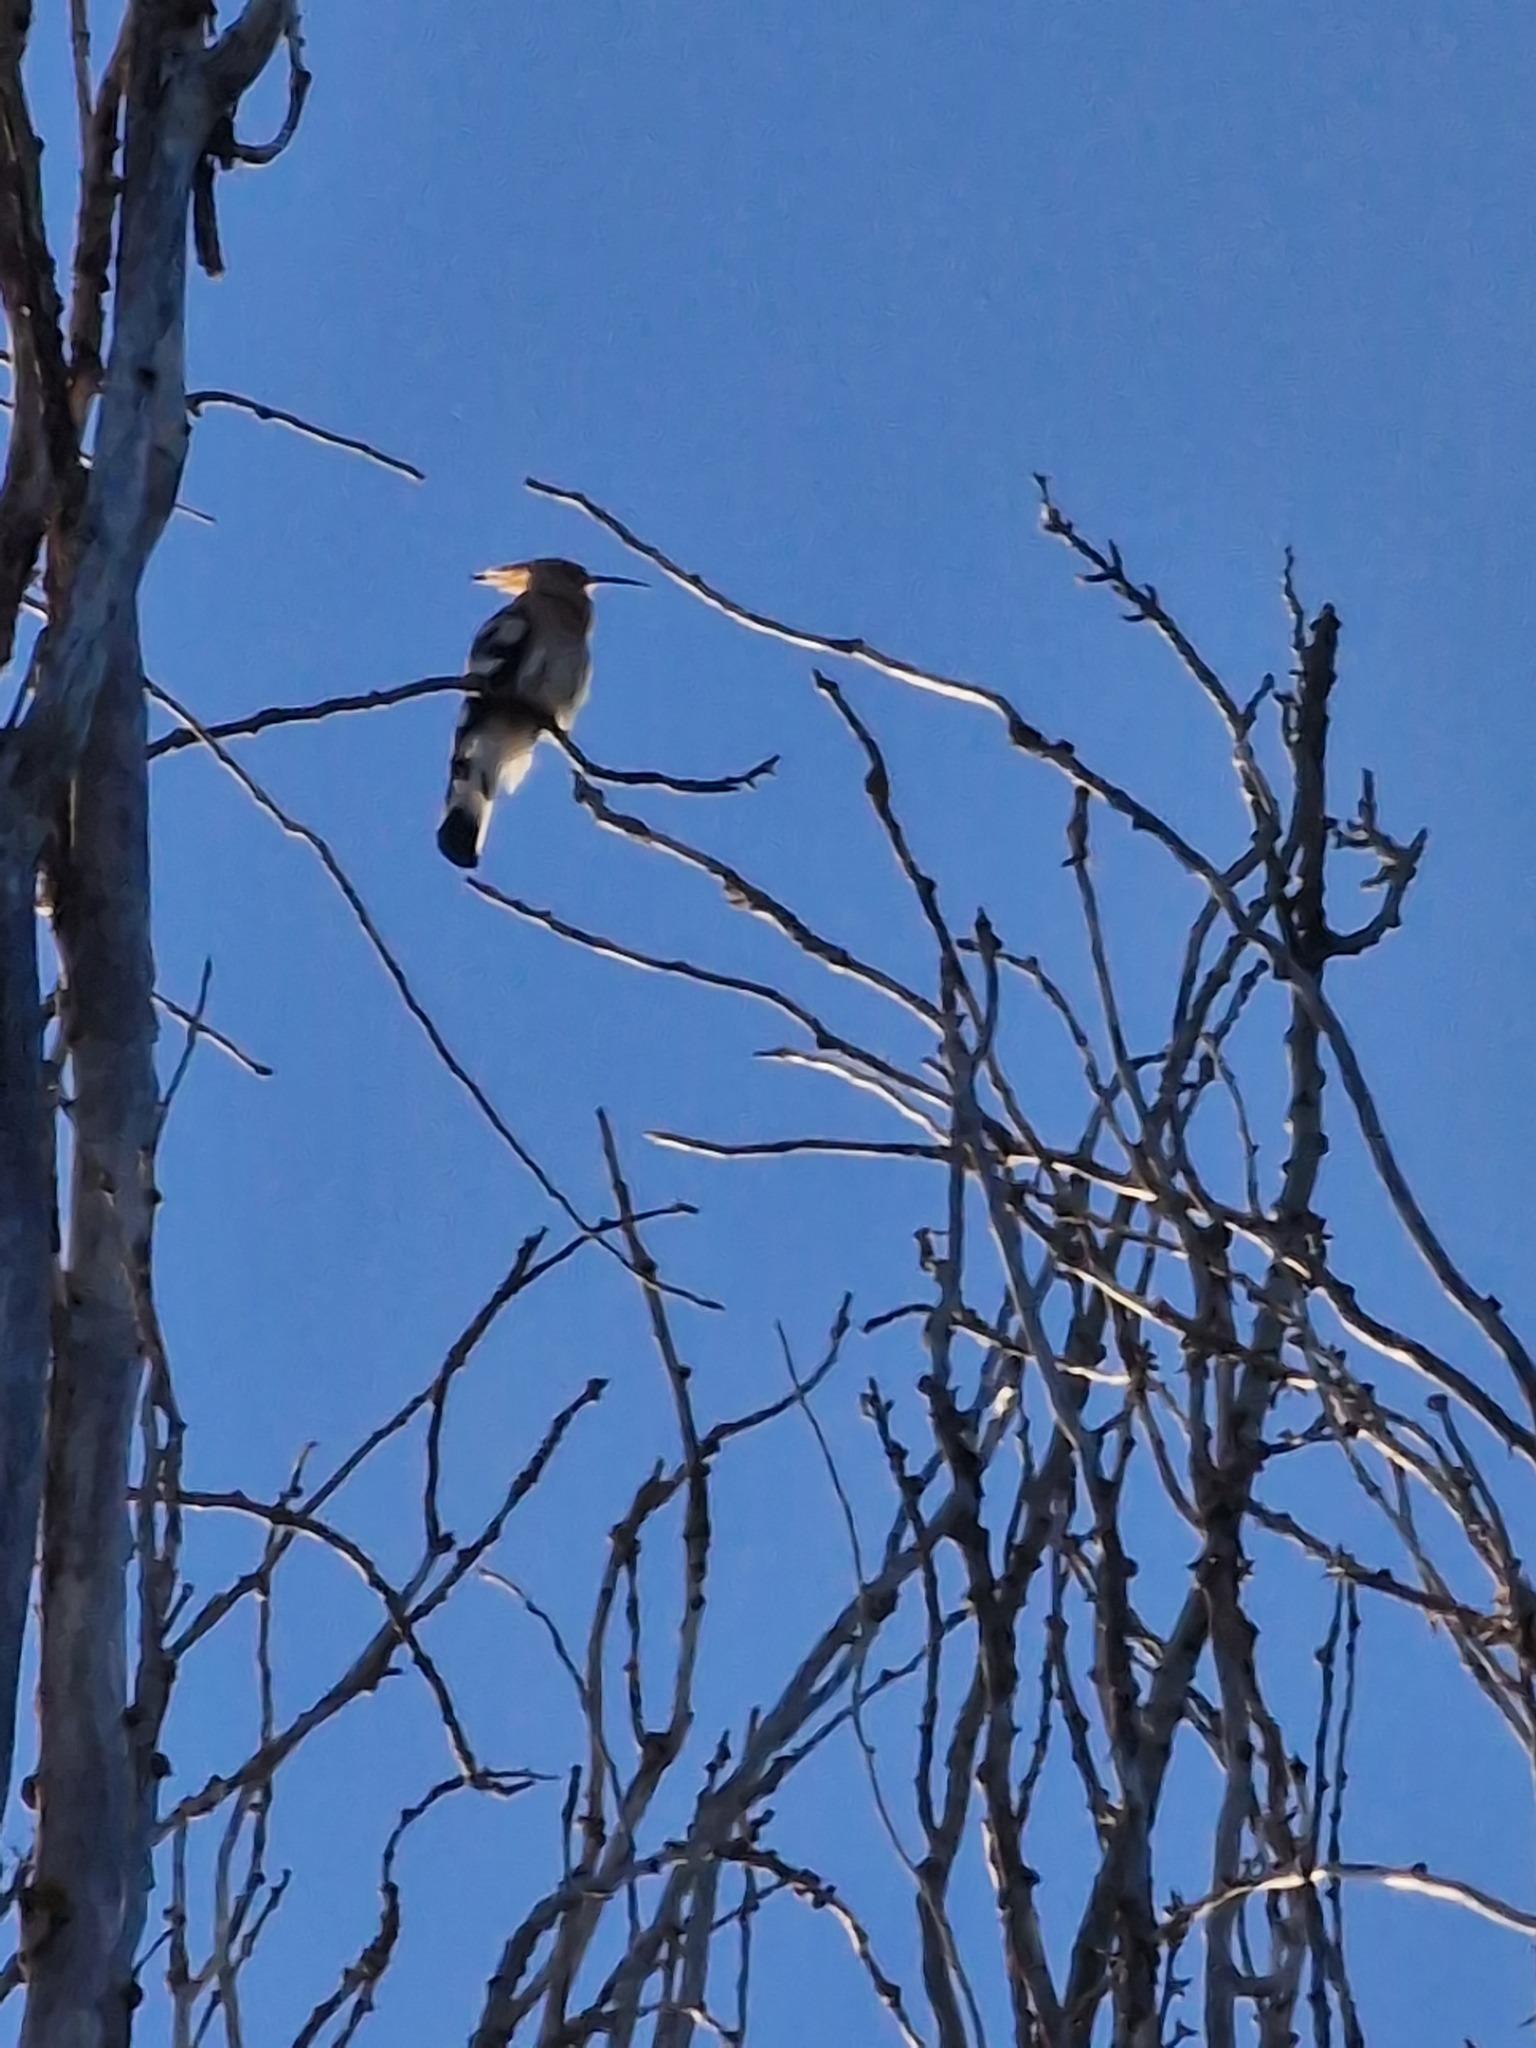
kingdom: Animalia
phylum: Chordata
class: Aves
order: Bucerotiformes
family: Upupidae
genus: Upupa
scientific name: Upupa epops
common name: Eurasian hoopoe
